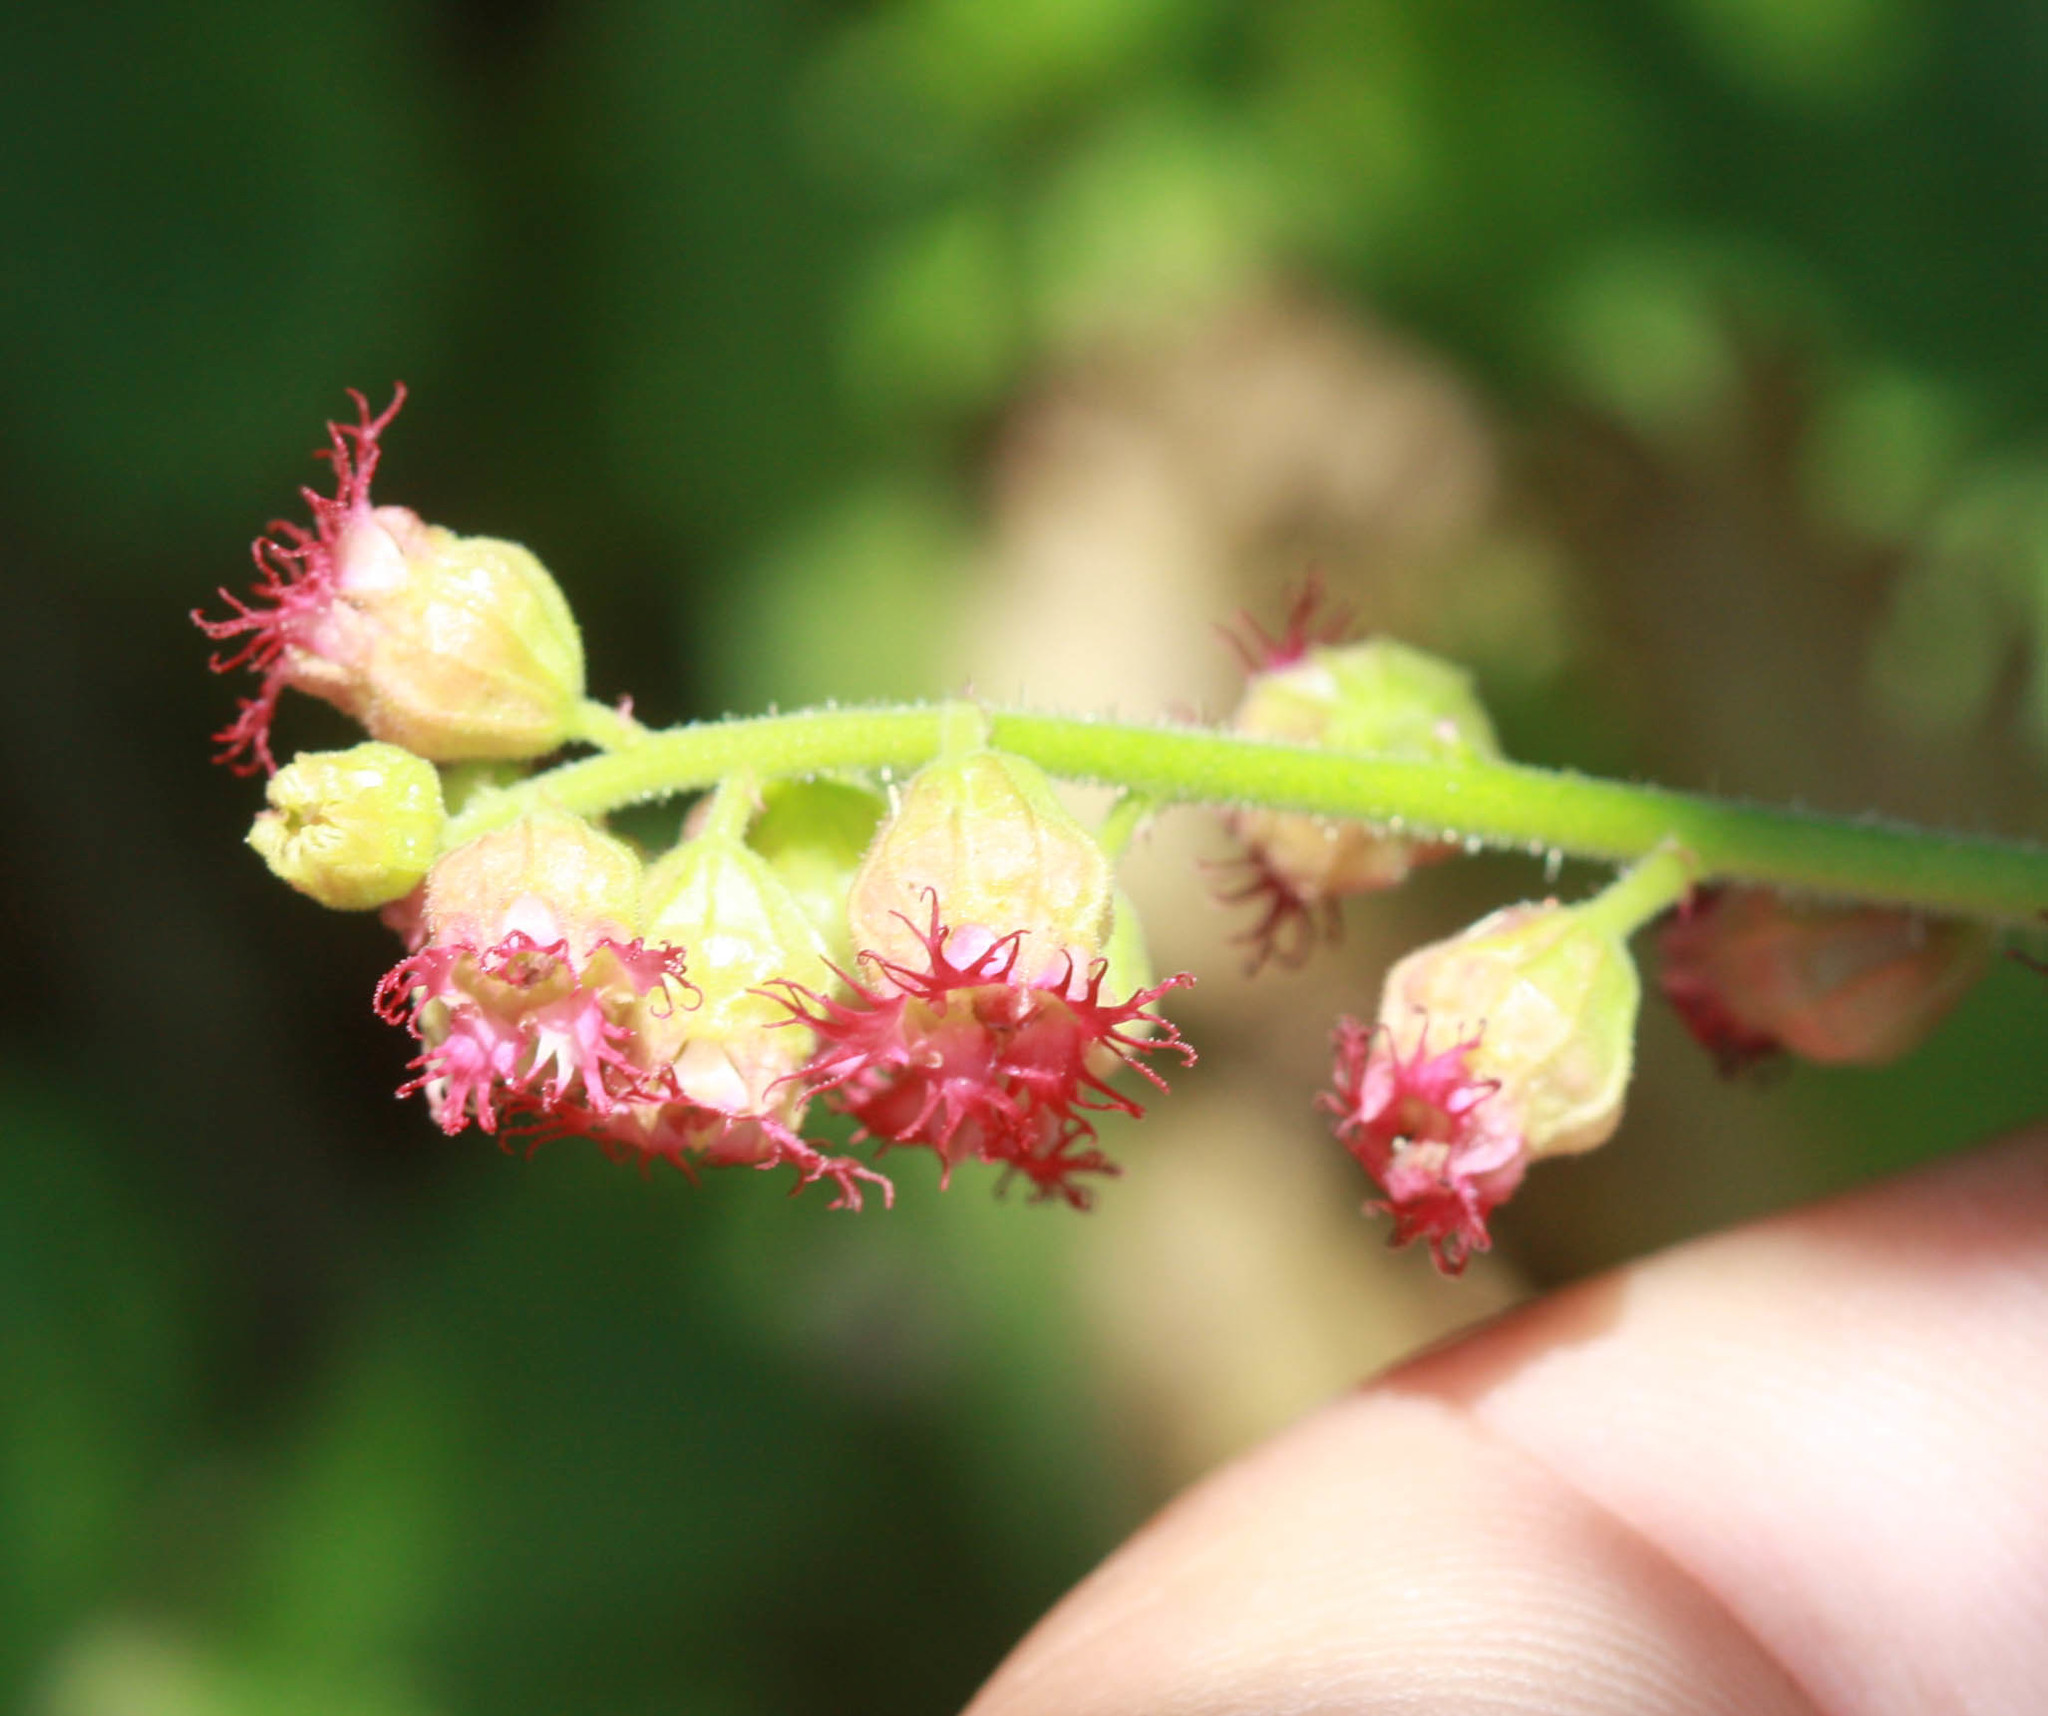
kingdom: Plantae
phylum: Tracheophyta
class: Magnoliopsida
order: Saxifragales
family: Saxifragaceae
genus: Tellima
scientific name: Tellima grandiflora
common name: Fringecups
